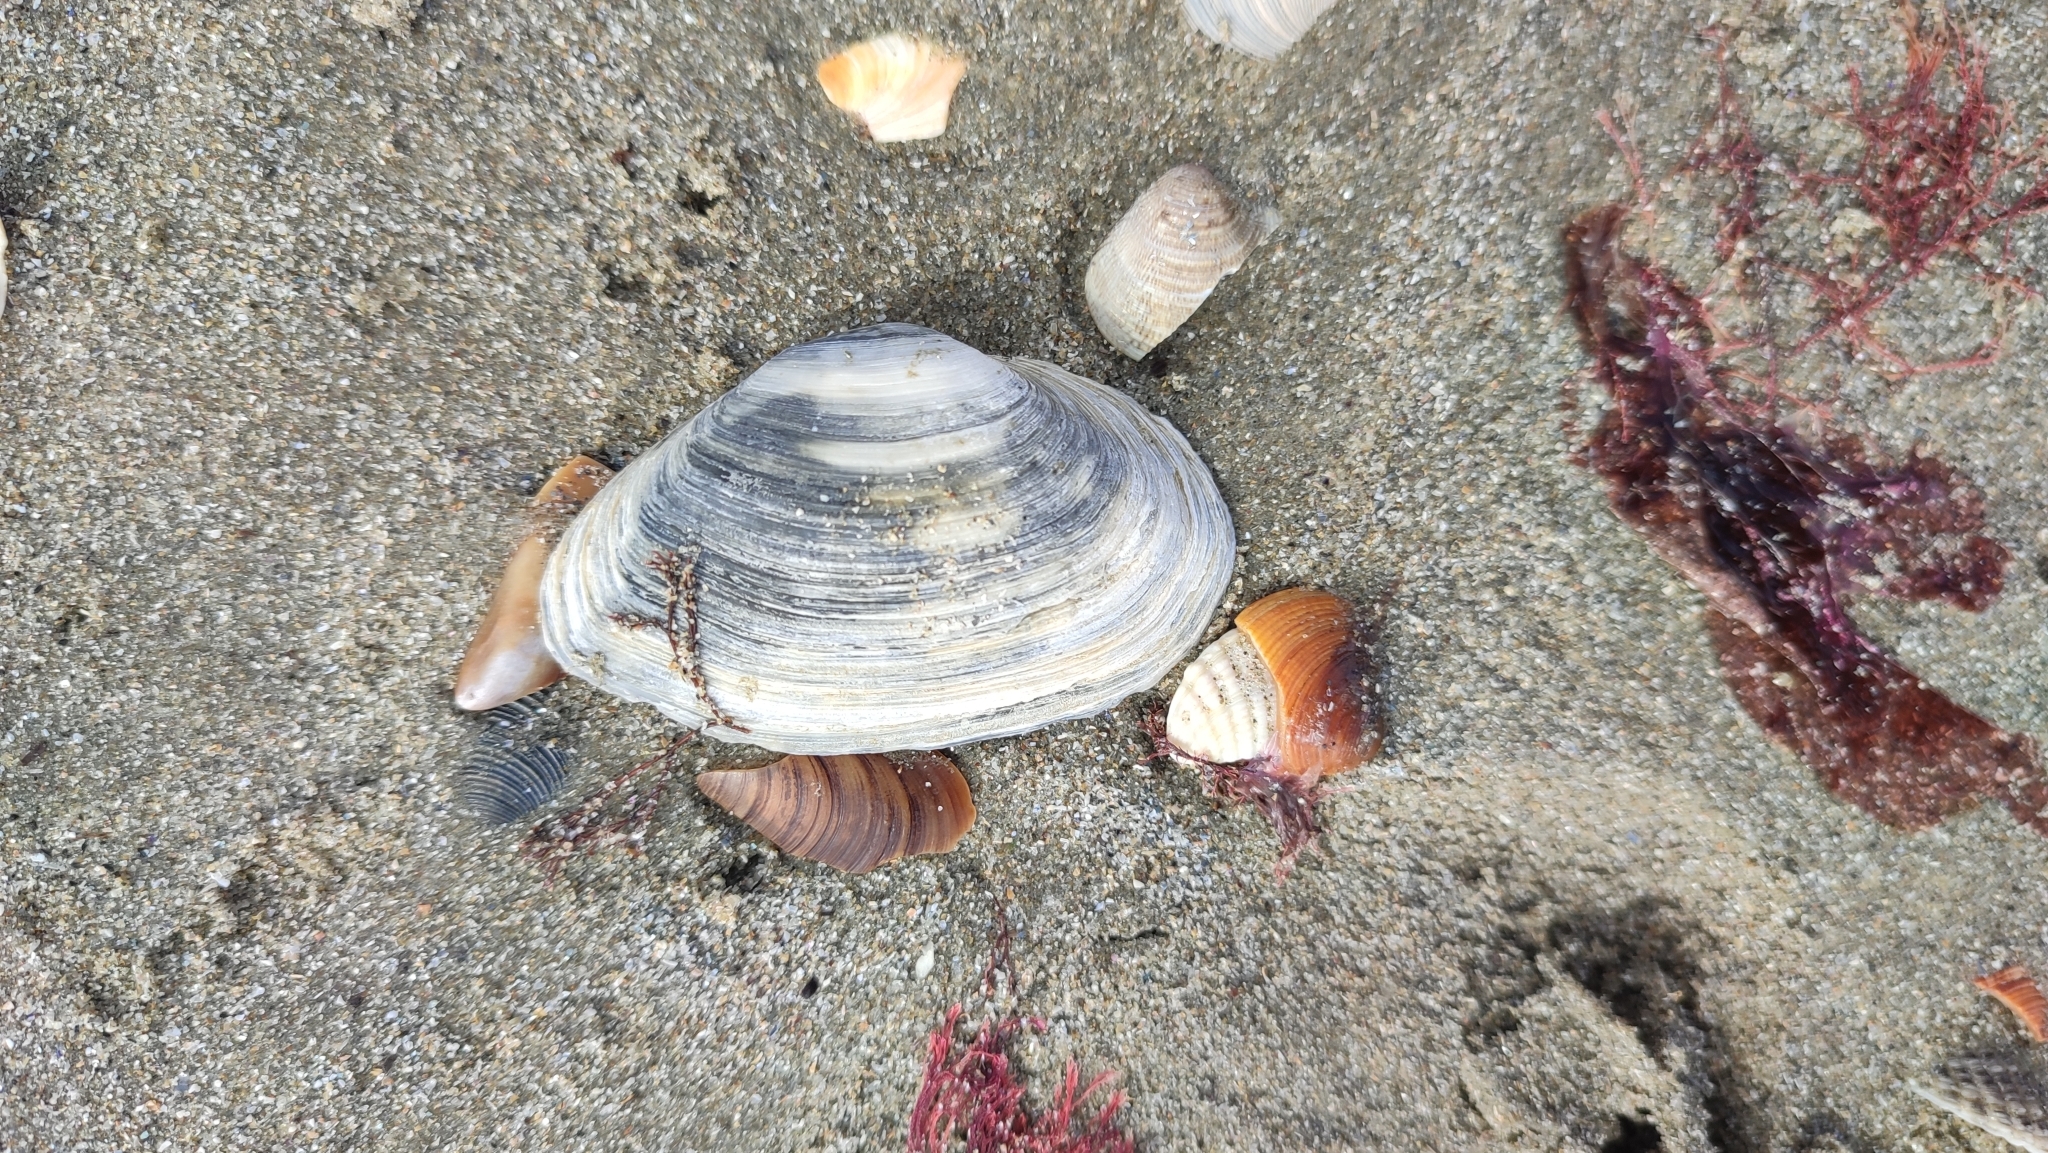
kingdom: Animalia
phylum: Mollusca
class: Bivalvia
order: Myida
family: Myidae
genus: Mya
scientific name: Mya arenaria
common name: Soft-shelled clam
